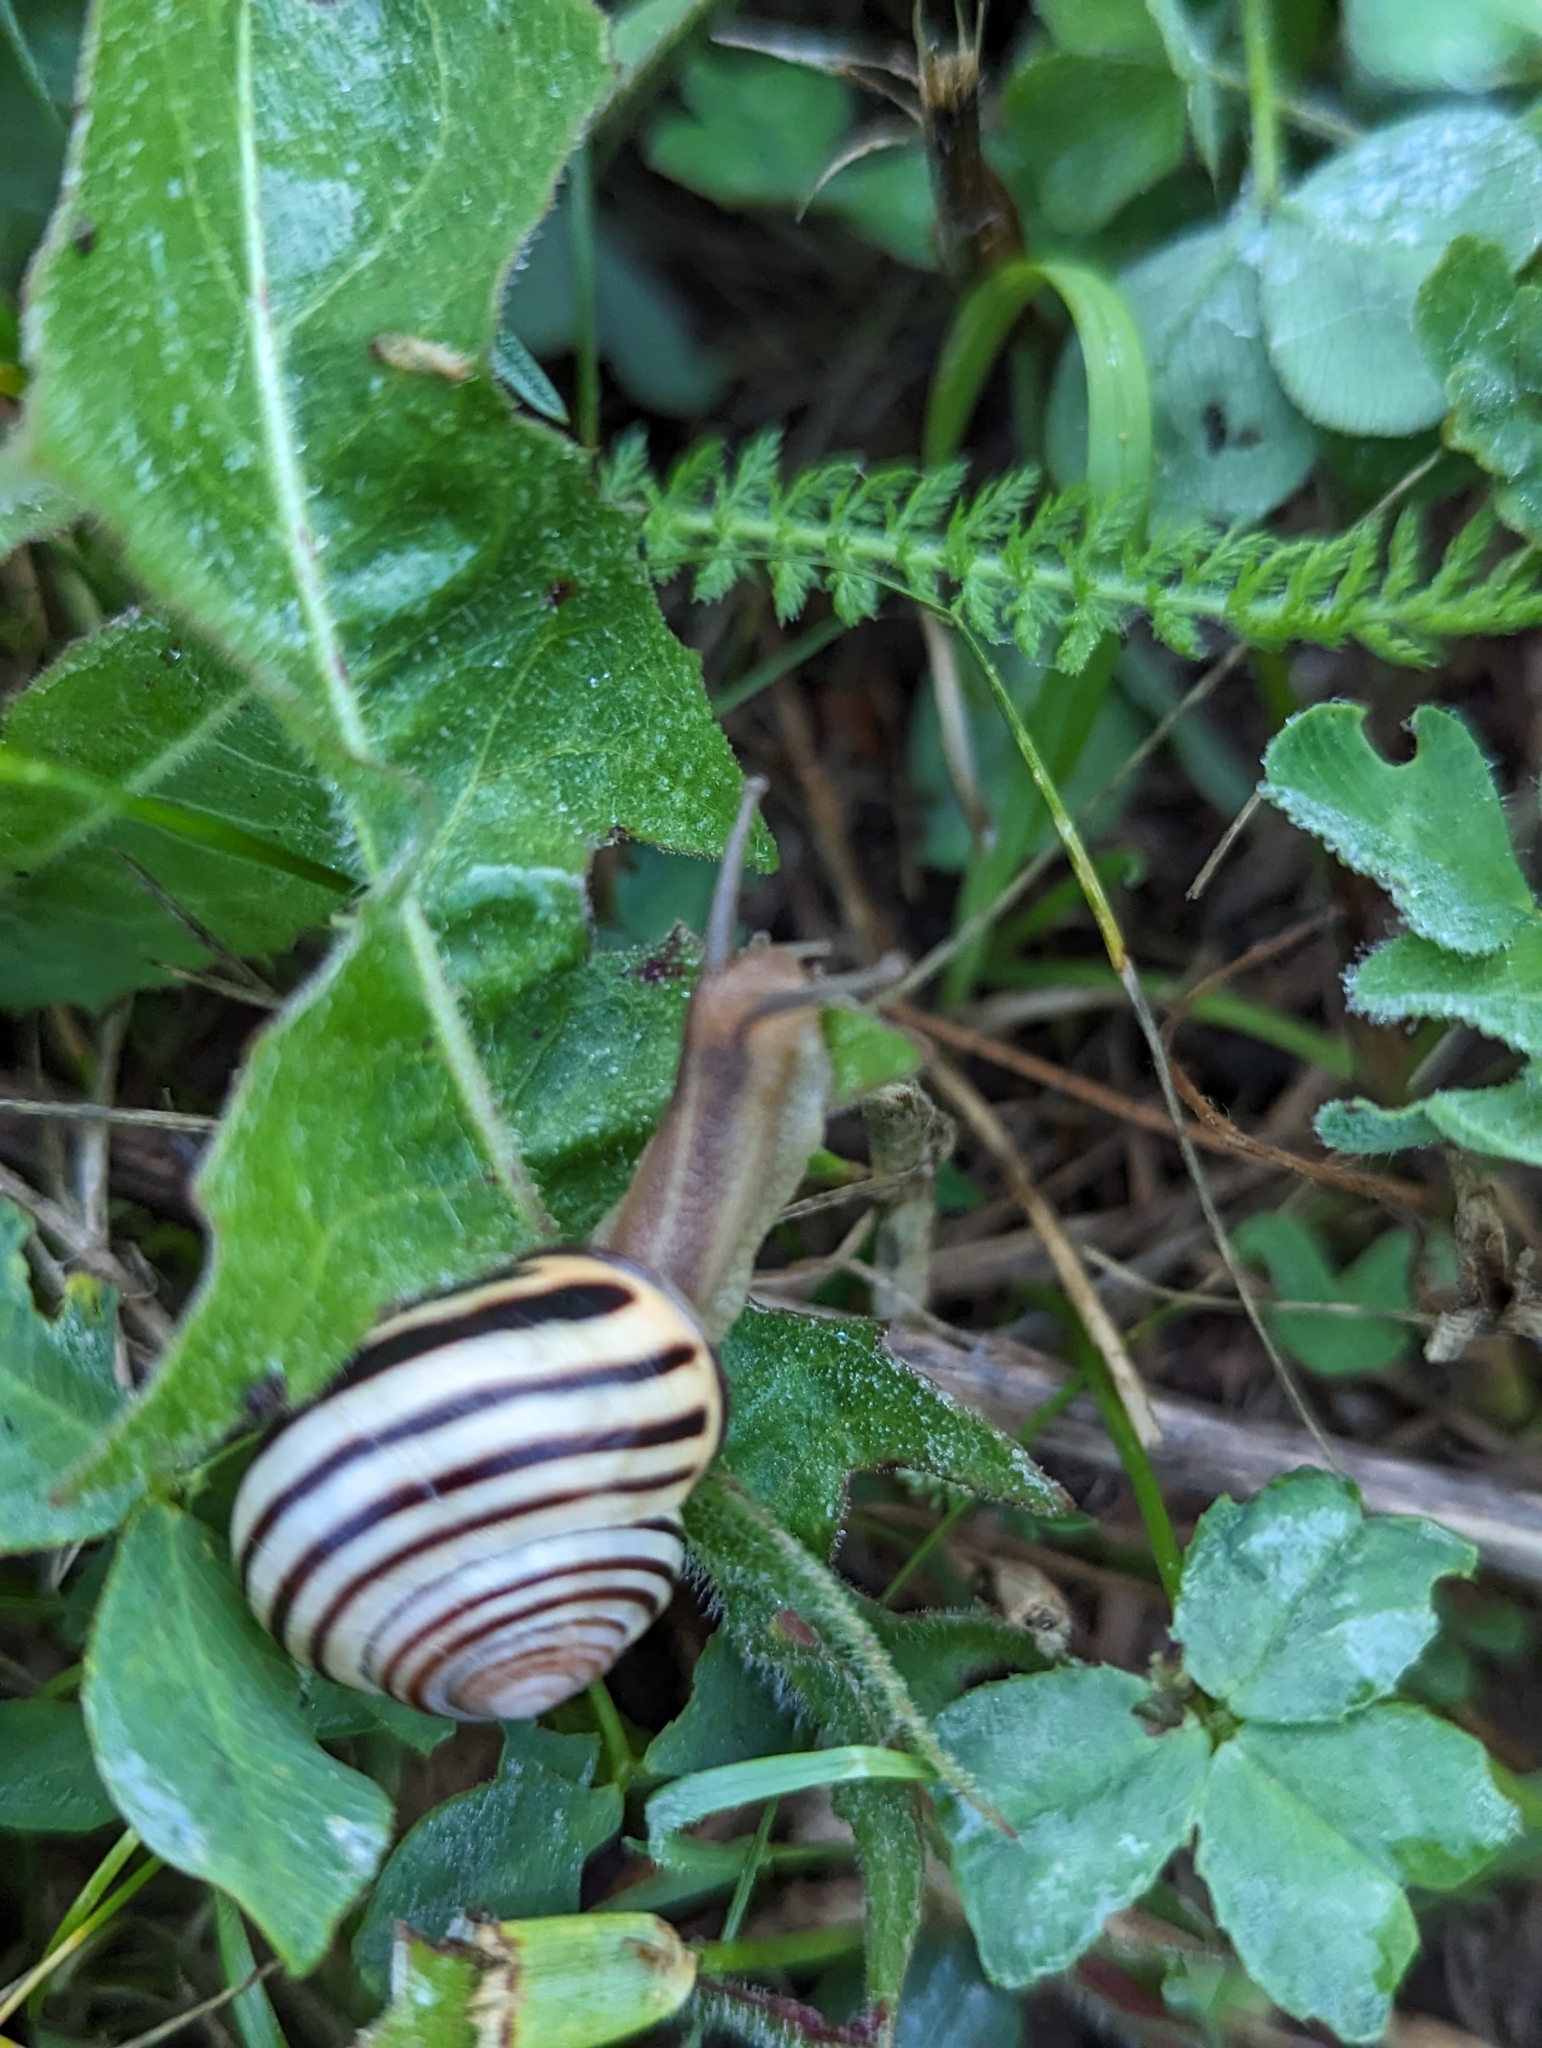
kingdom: Animalia
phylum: Mollusca
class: Gastropoda
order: Stylommatophora
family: Helicidae
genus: Cepaea
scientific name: Cepaea nemoralis
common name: Grovesnail
